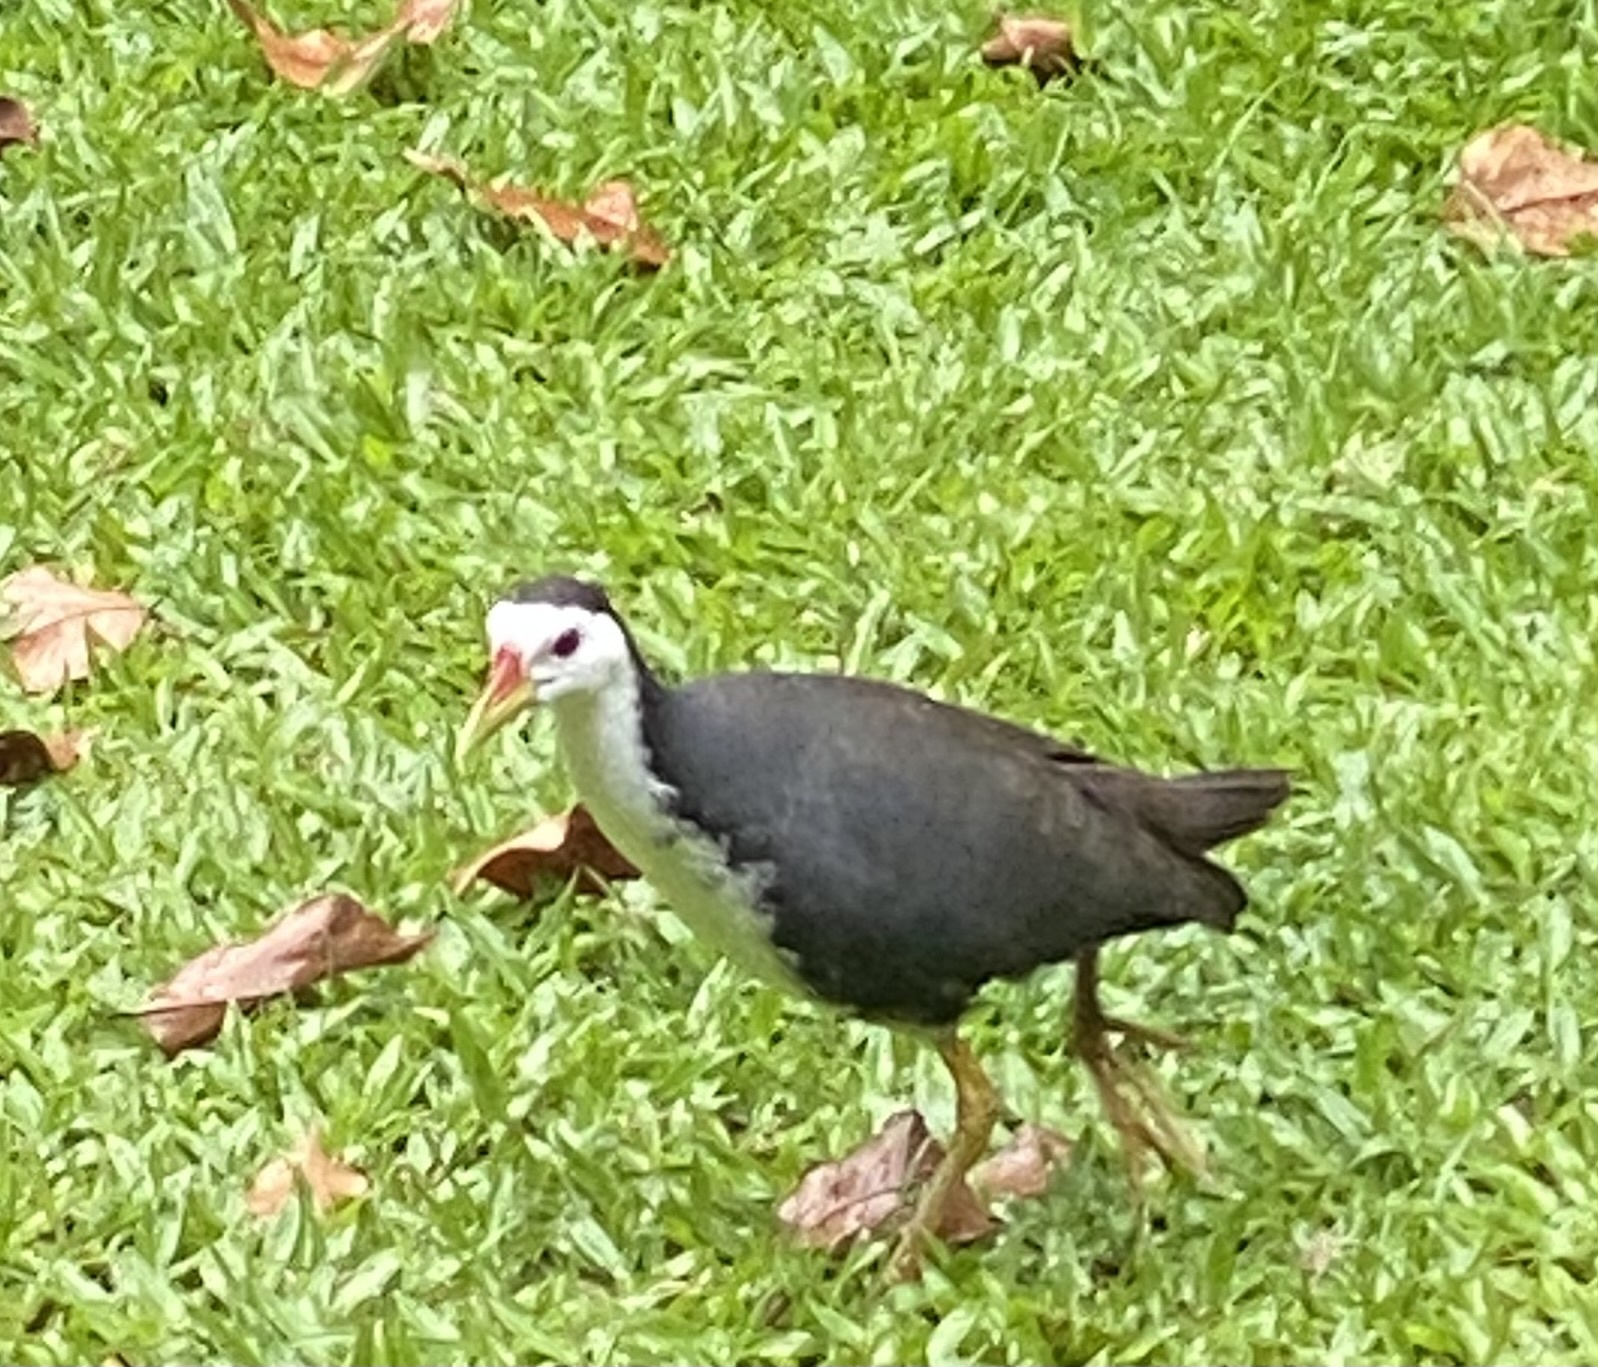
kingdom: Animalia
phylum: Chordata
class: Aves
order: Gruiformes
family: Rallidae
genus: Amaurornis
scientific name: Amaurornis phoenicurus
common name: White-breasted waterhen
